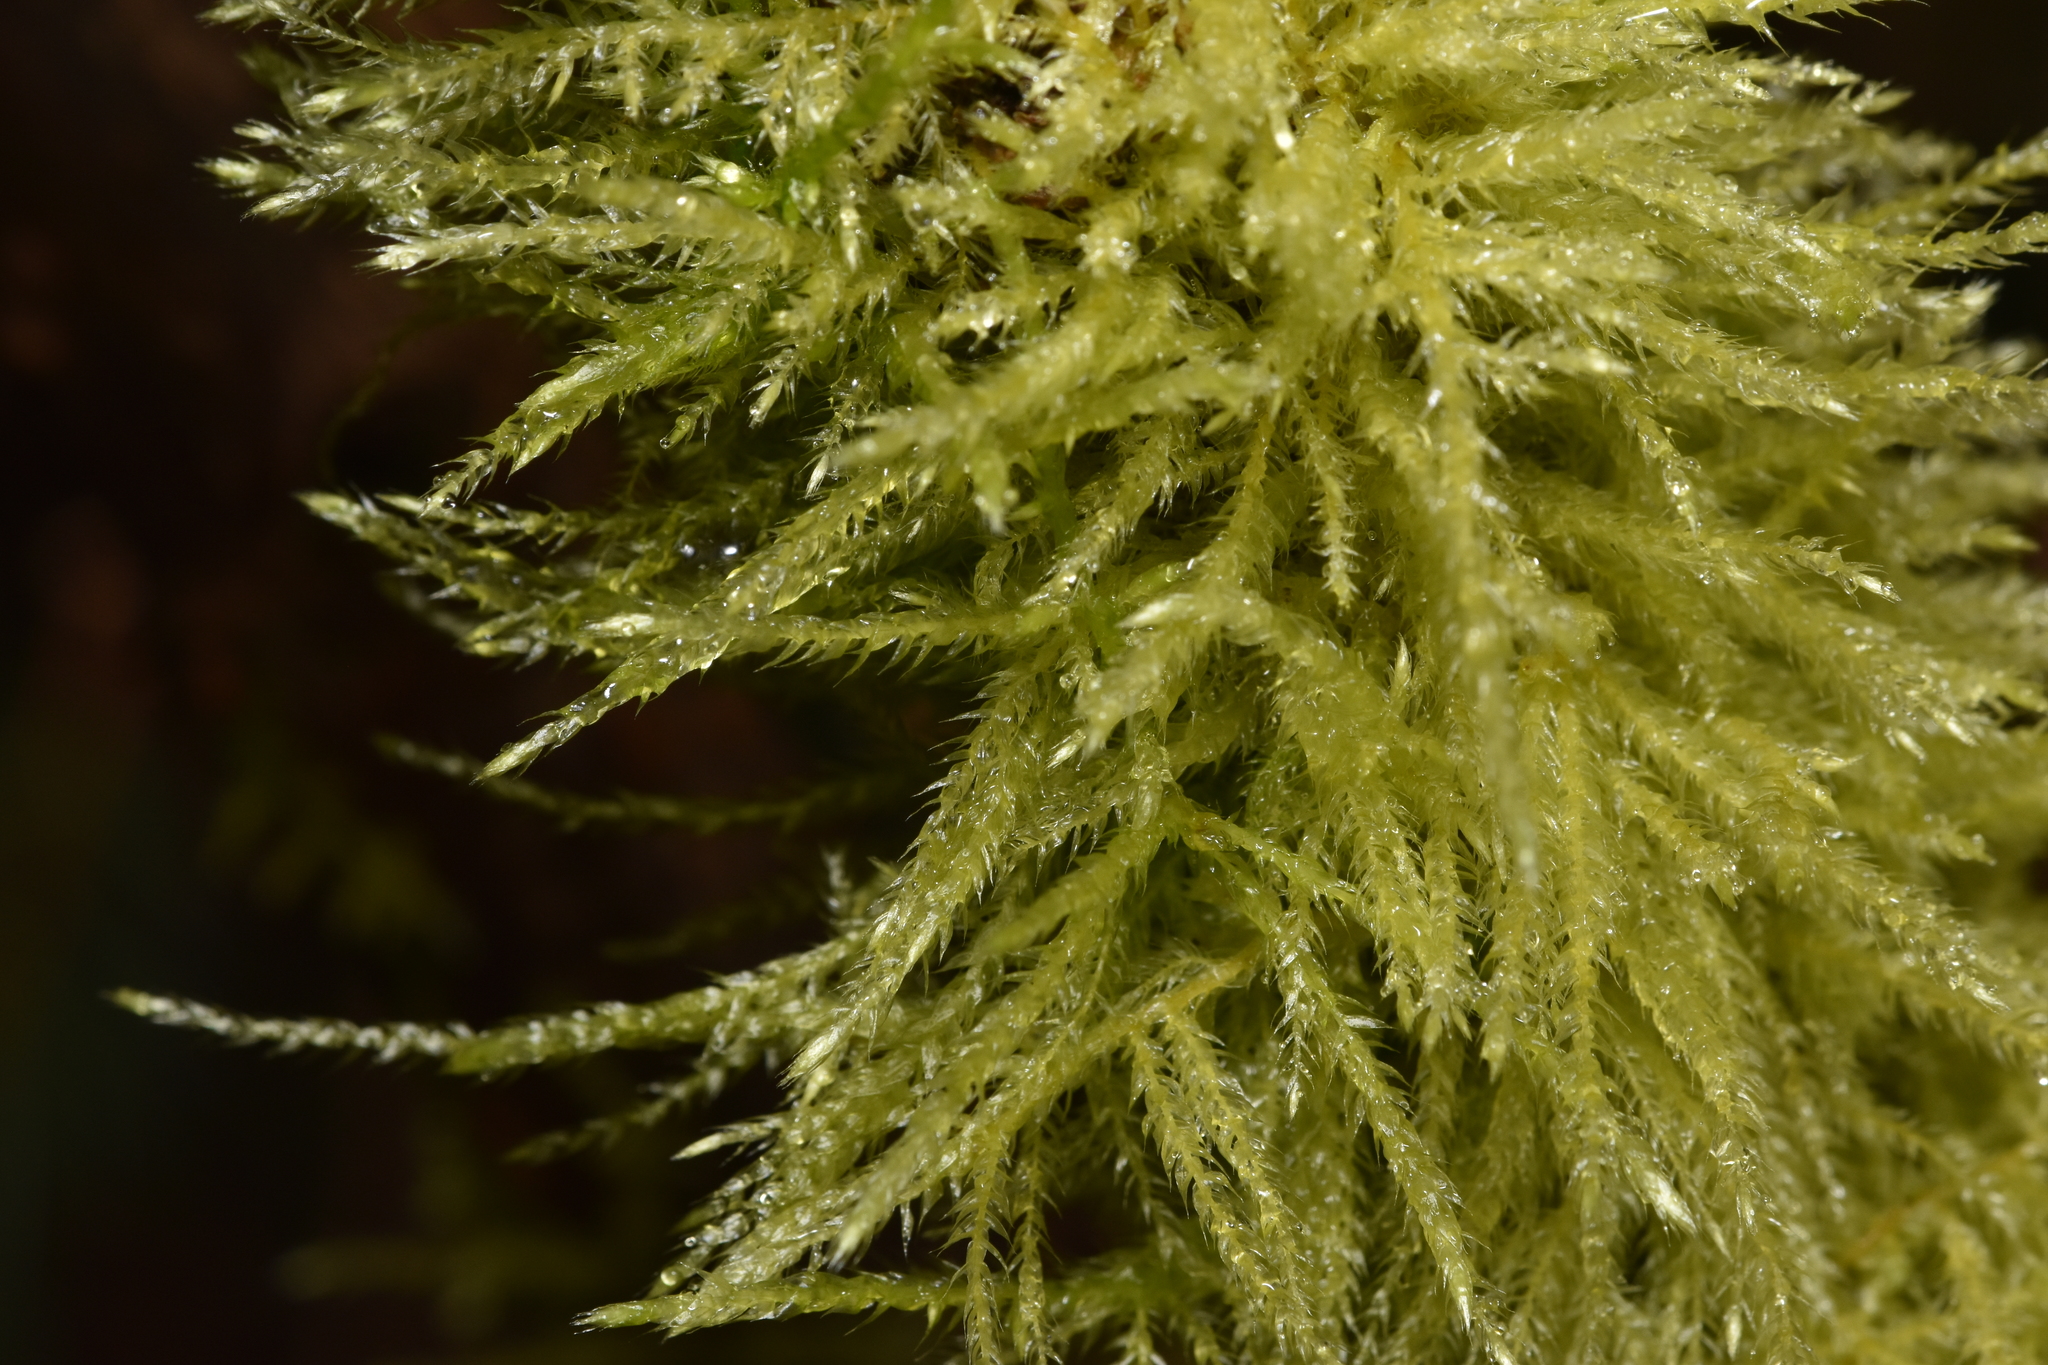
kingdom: Plantae
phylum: Bryophyta
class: Bryopsida
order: Hypnales
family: Brachytheciaceae
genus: Kindbergia
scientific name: Kindbergia praelonga
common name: Slender beaked moss
